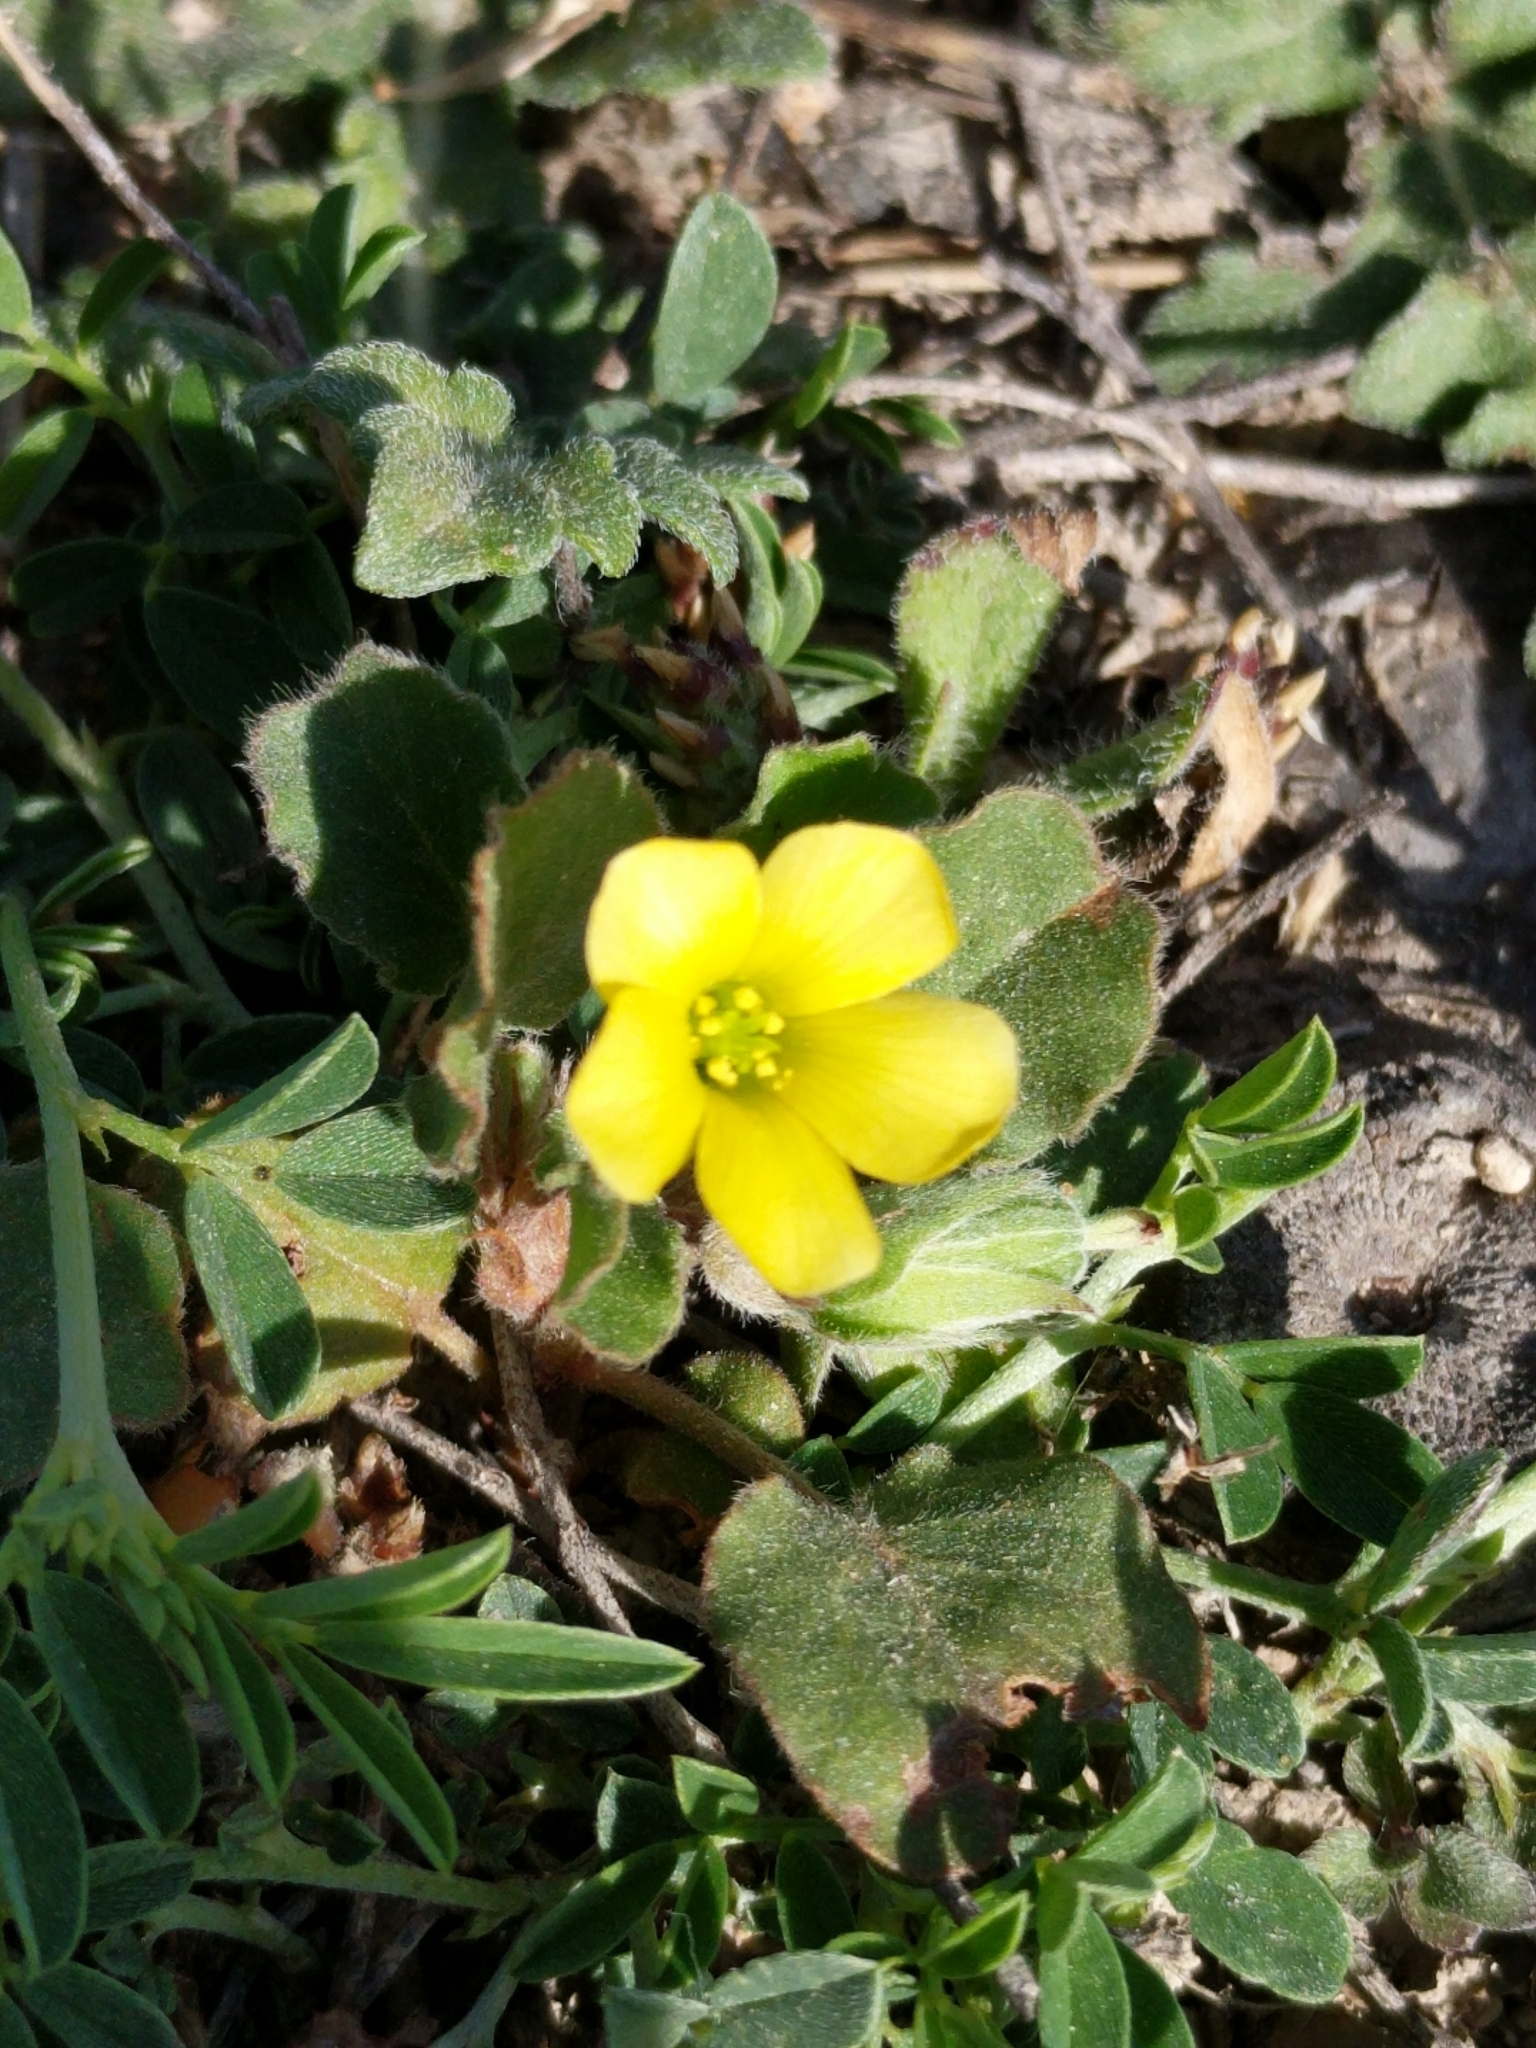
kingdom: Plantae
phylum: Tracheophyta
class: Magnoliopsida
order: Oxalidales
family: Oxalidaceae
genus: Oxalis
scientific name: Oxalis dichondrifolia
